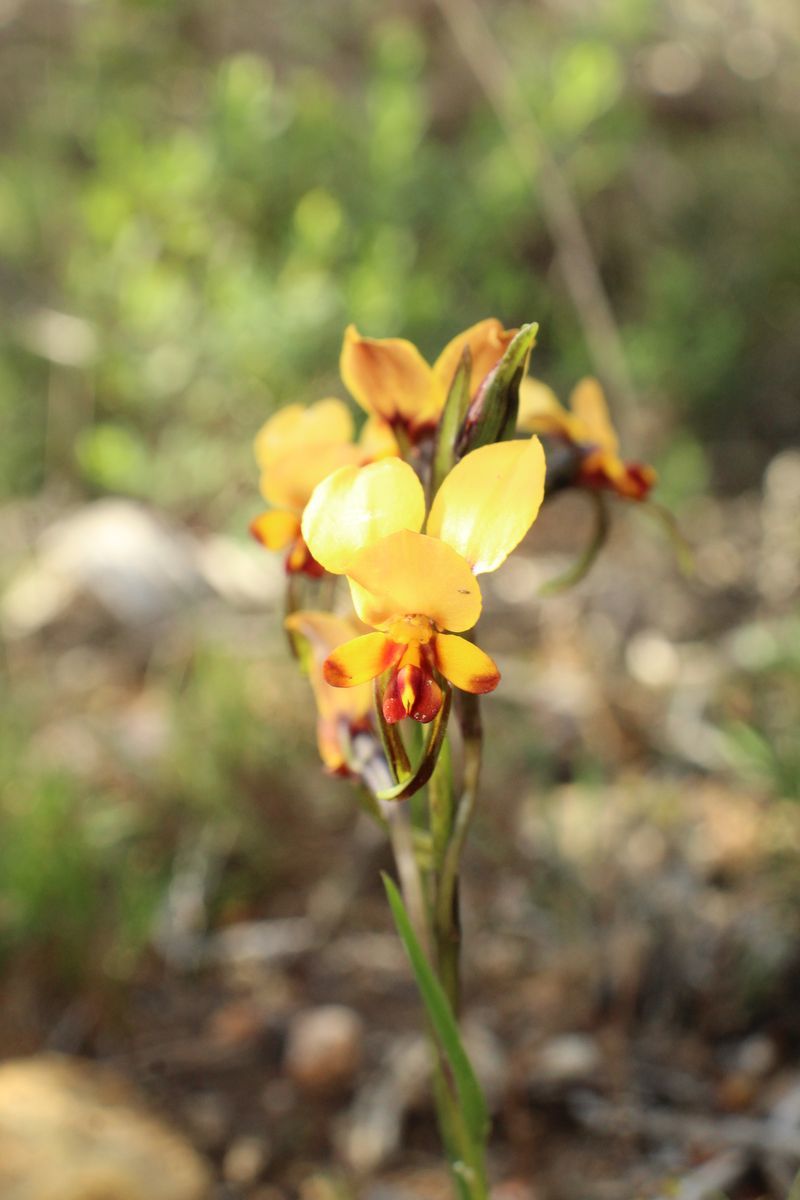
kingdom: Plantae
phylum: Tracheophyta
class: Liliopsida
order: Asparagales
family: Orchidaceae
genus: Diuris
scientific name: Diuris brockmanii
